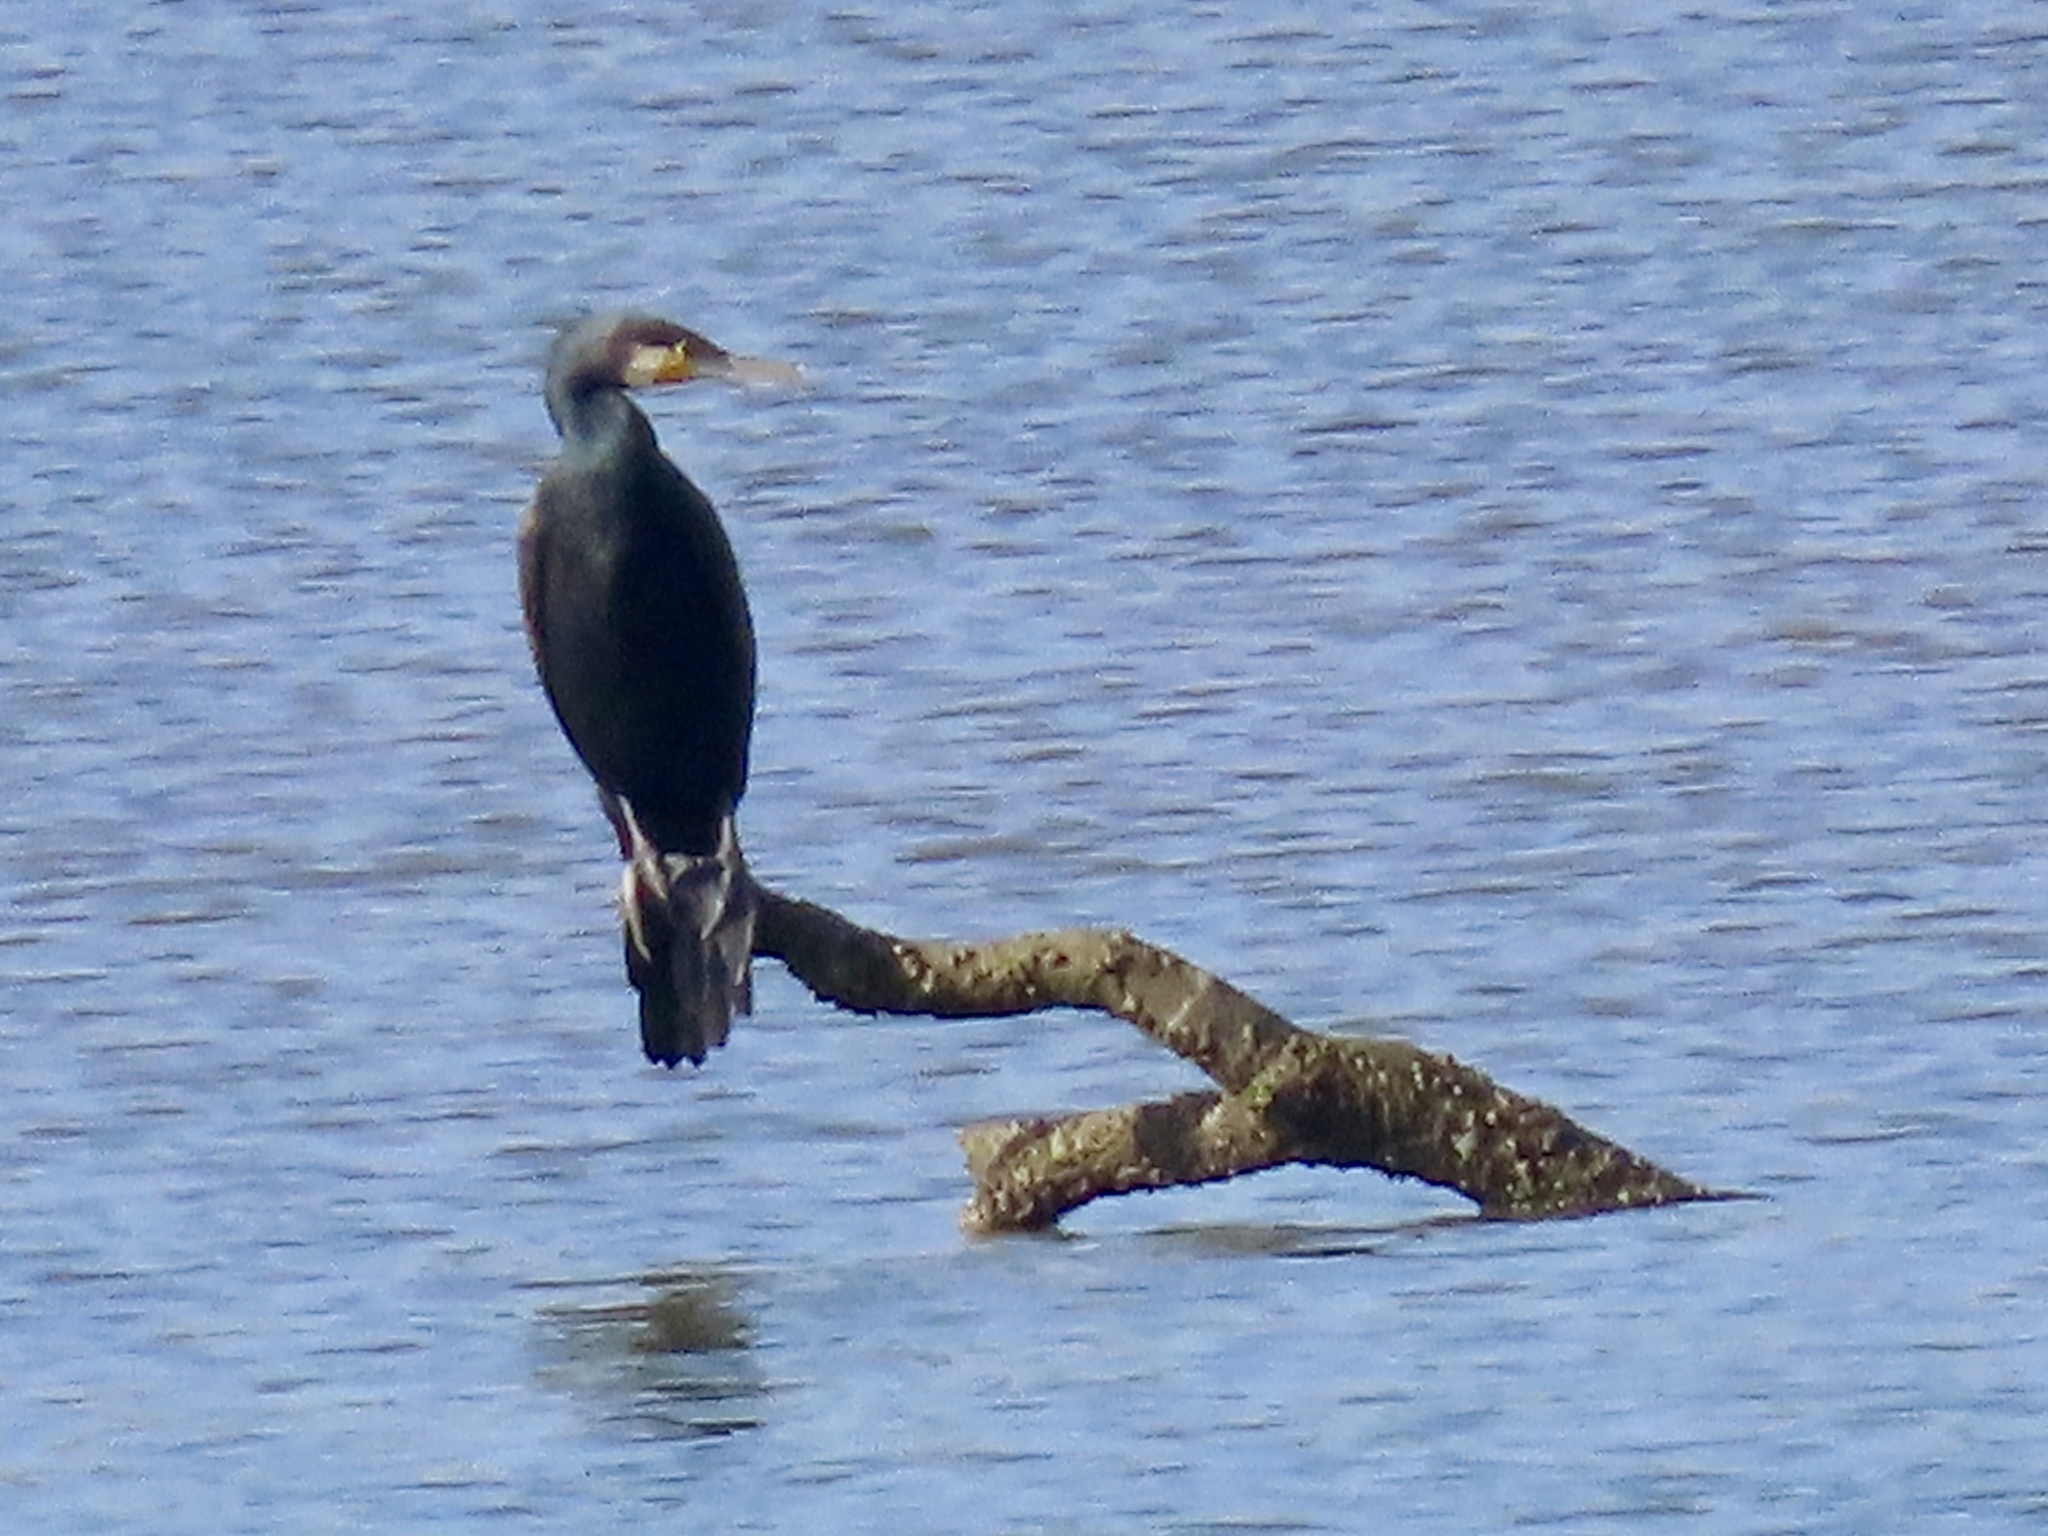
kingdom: Animalia
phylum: Chordata
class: Aves
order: Suliformes
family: Phalacrocoracidae
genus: Phalacrocorax
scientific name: Phalacrocorax carbo
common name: Great cormorant
